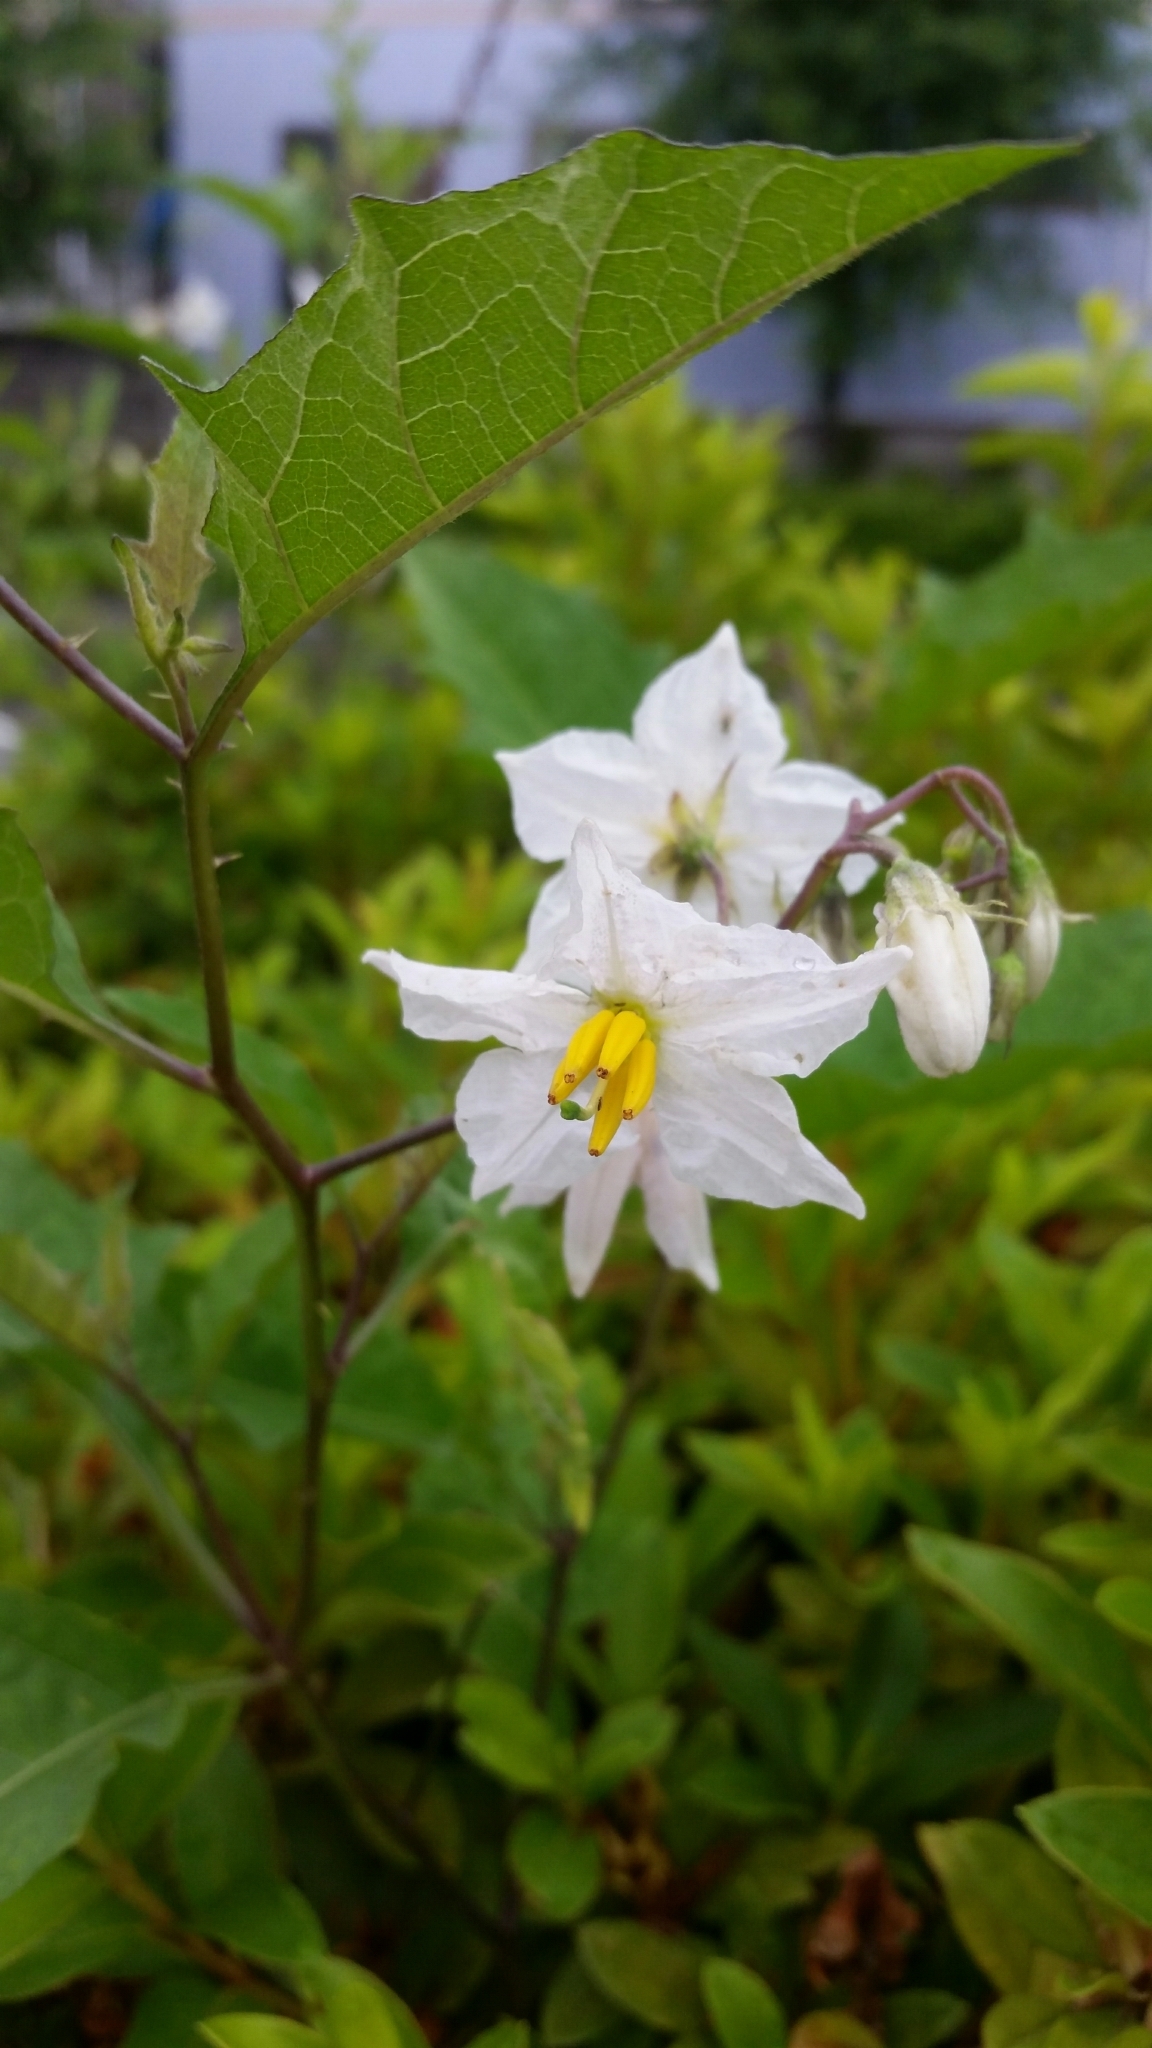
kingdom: Plantae
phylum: Tracheophyta
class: Magnoliopsida
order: Solanales
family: Solanaceae
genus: Solanum
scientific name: Solanum carolinense
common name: Horse-nettle
